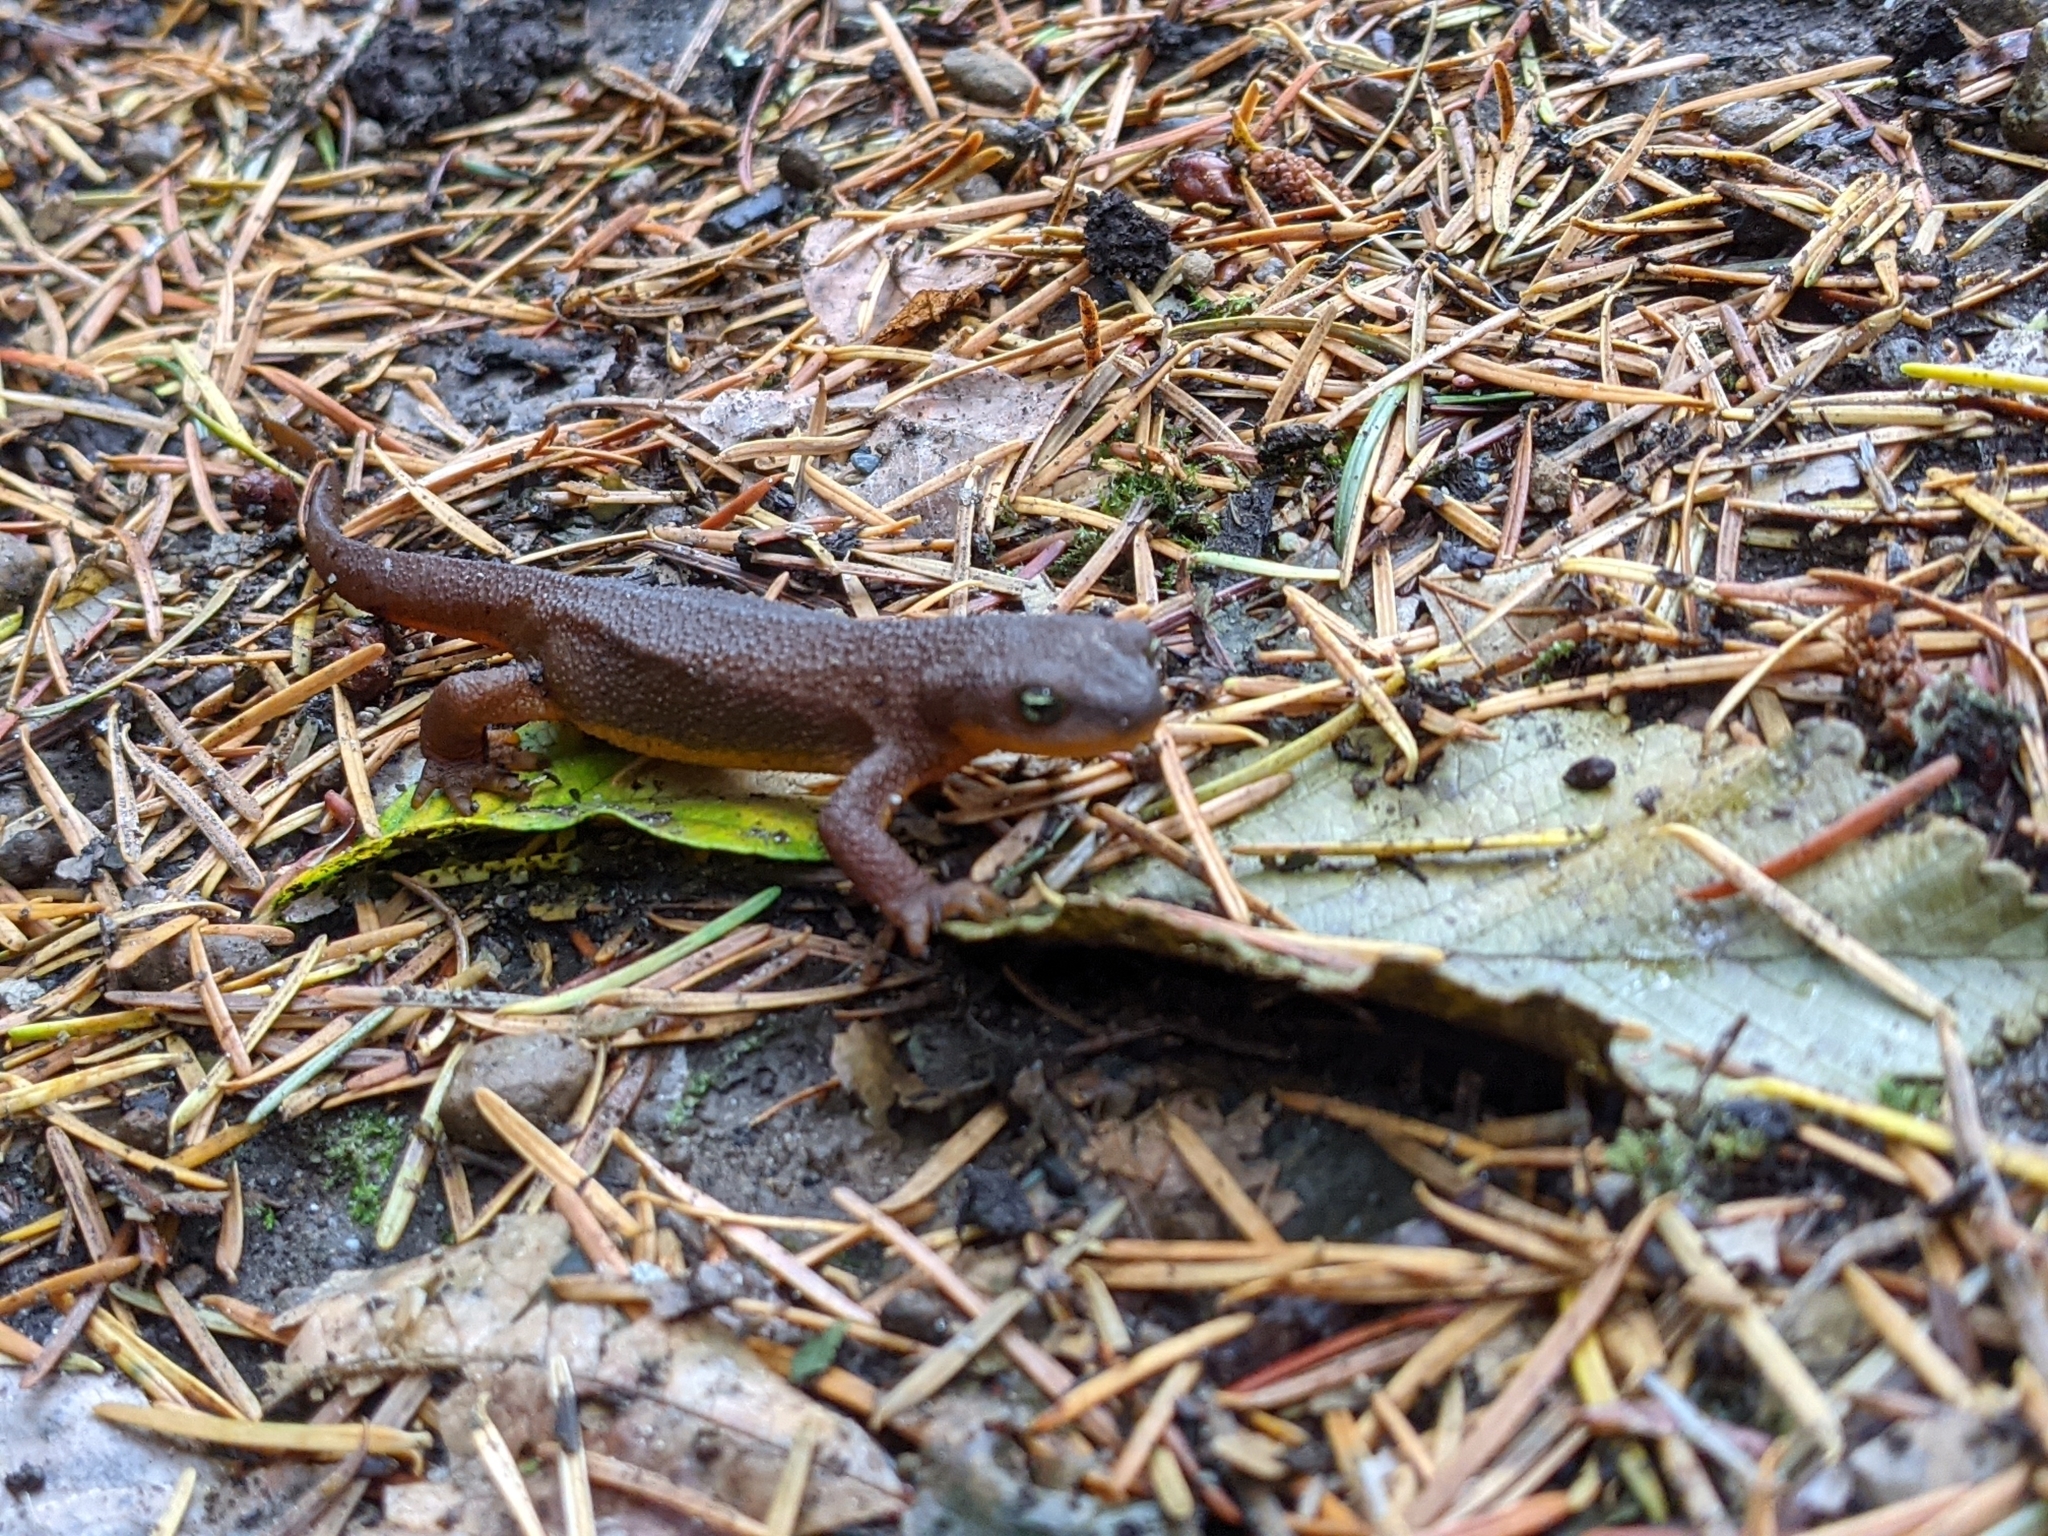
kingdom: Animalia
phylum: Chordata
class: Amphibia
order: Caudata
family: Salamandridae
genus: Taricha
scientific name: Taricha granulosa
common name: Roughskin newt
